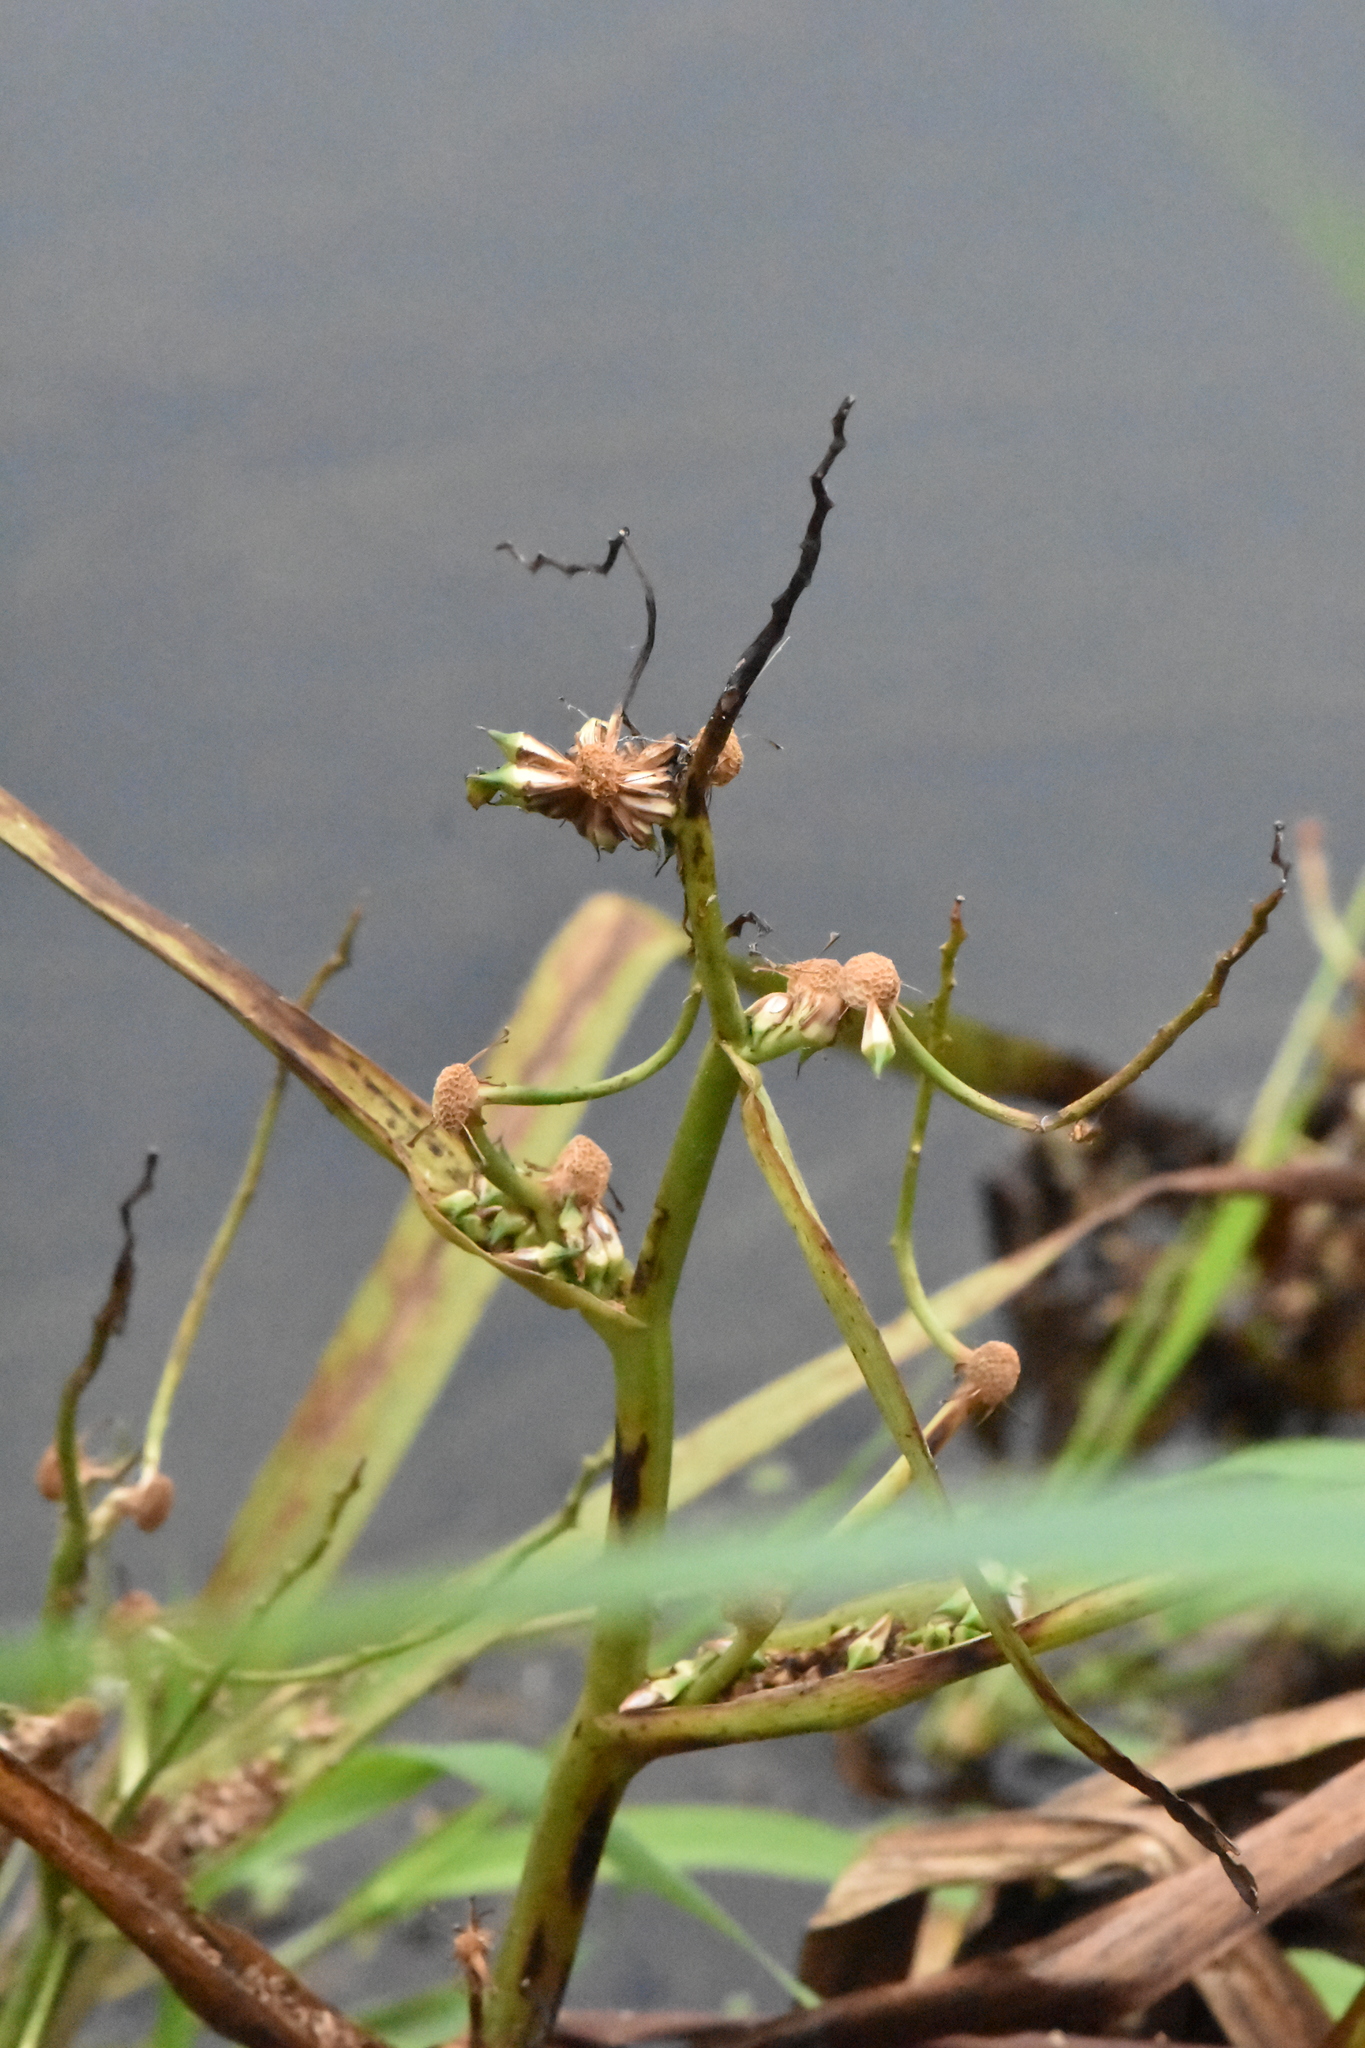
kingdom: Plantae
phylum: Tracheophyta
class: Liliopsida
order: Poales
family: Typhaceae
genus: Sparganium
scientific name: Sparganium erectum
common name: Branched bur-reed
